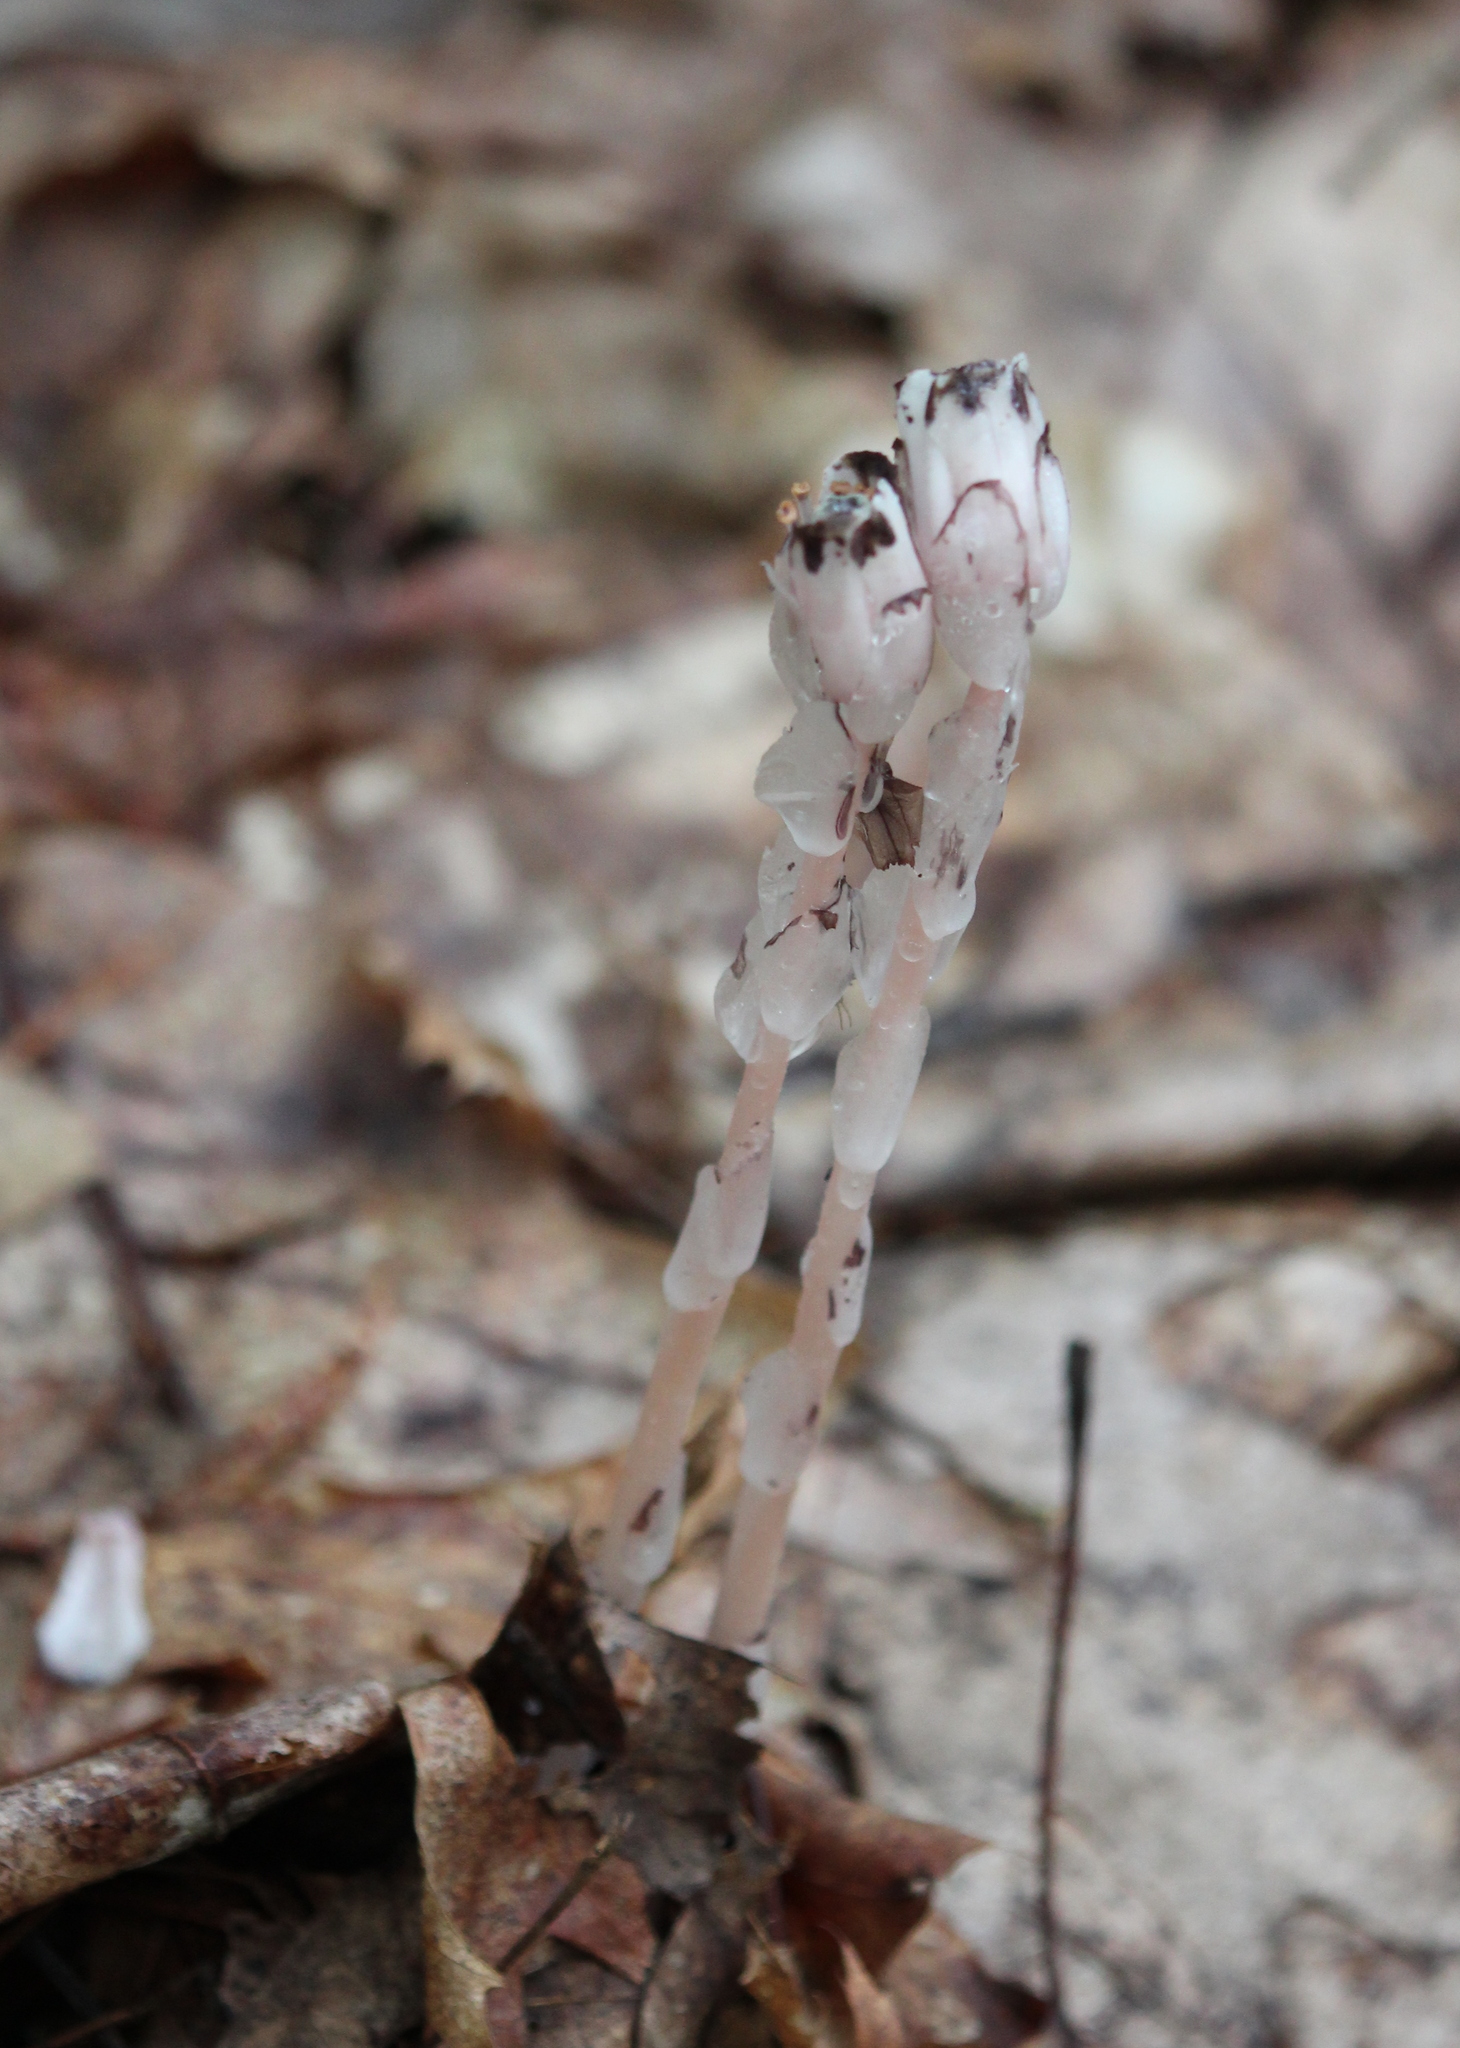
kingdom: Plantae
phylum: Tracheophyta
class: Magnoliopsida
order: Ericales
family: Ericaceae
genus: Monotropa
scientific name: Monotropa uniflora
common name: Convulsion root
